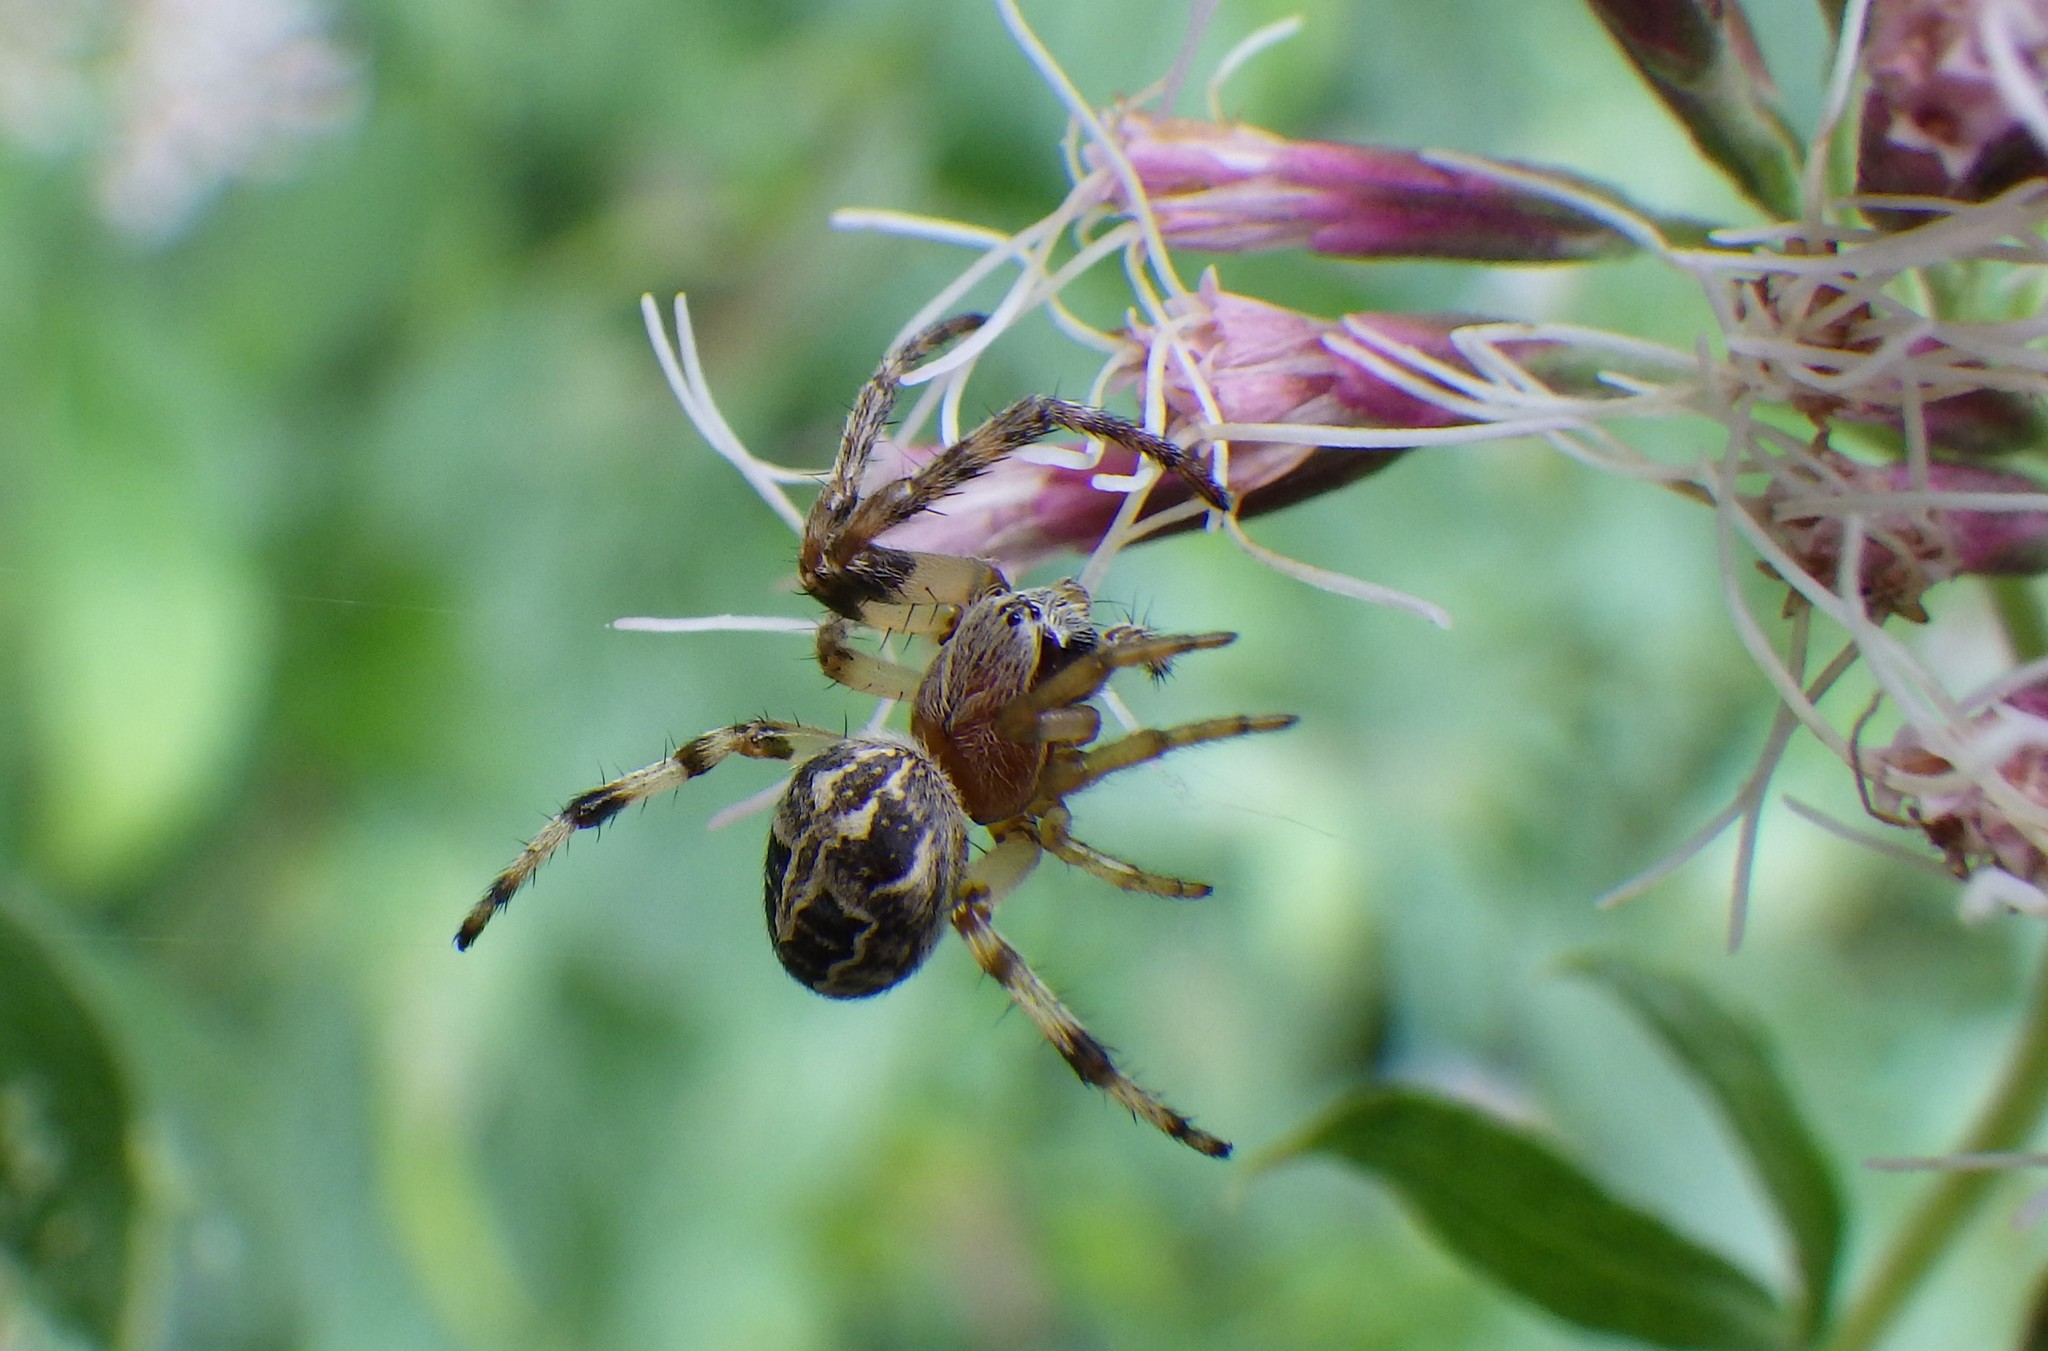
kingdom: Animalia
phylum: Arthropoda
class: Arachnida
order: Araneae
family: Araneidae
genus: Larinioides
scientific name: Larinioides cornutus
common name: Furrow orbweaver
